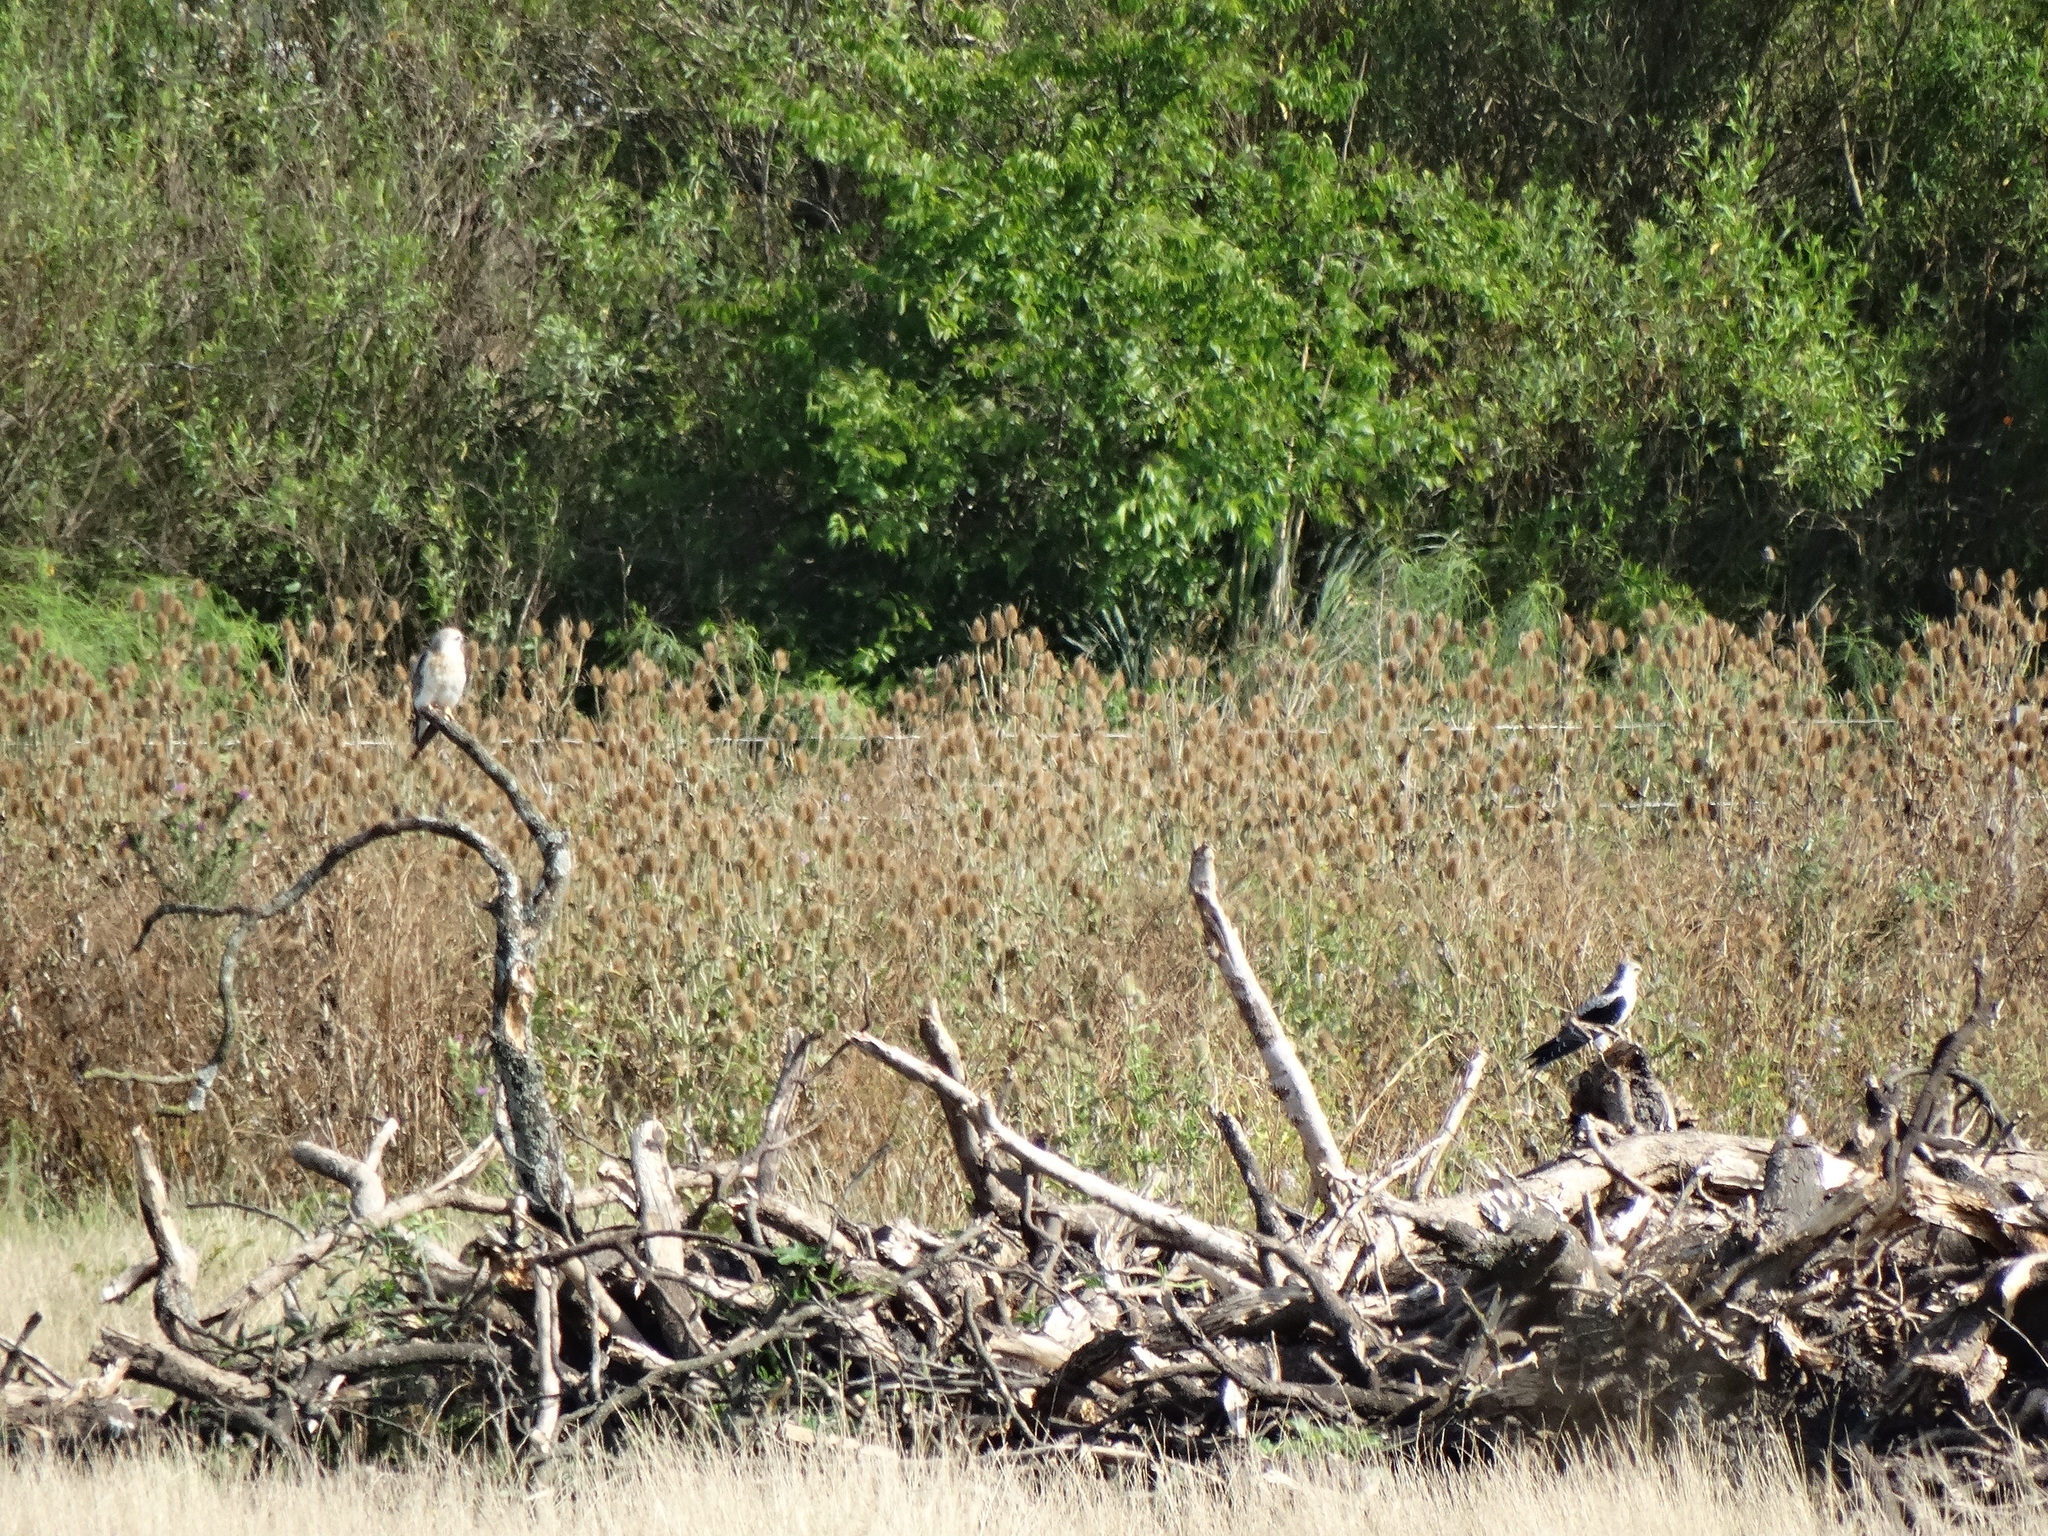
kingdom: Animalia
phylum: Chordata
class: Aves
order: Accipitriformes
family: Accipitridae
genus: Elanus
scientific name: Elanus leucurus
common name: White-tailed kite
